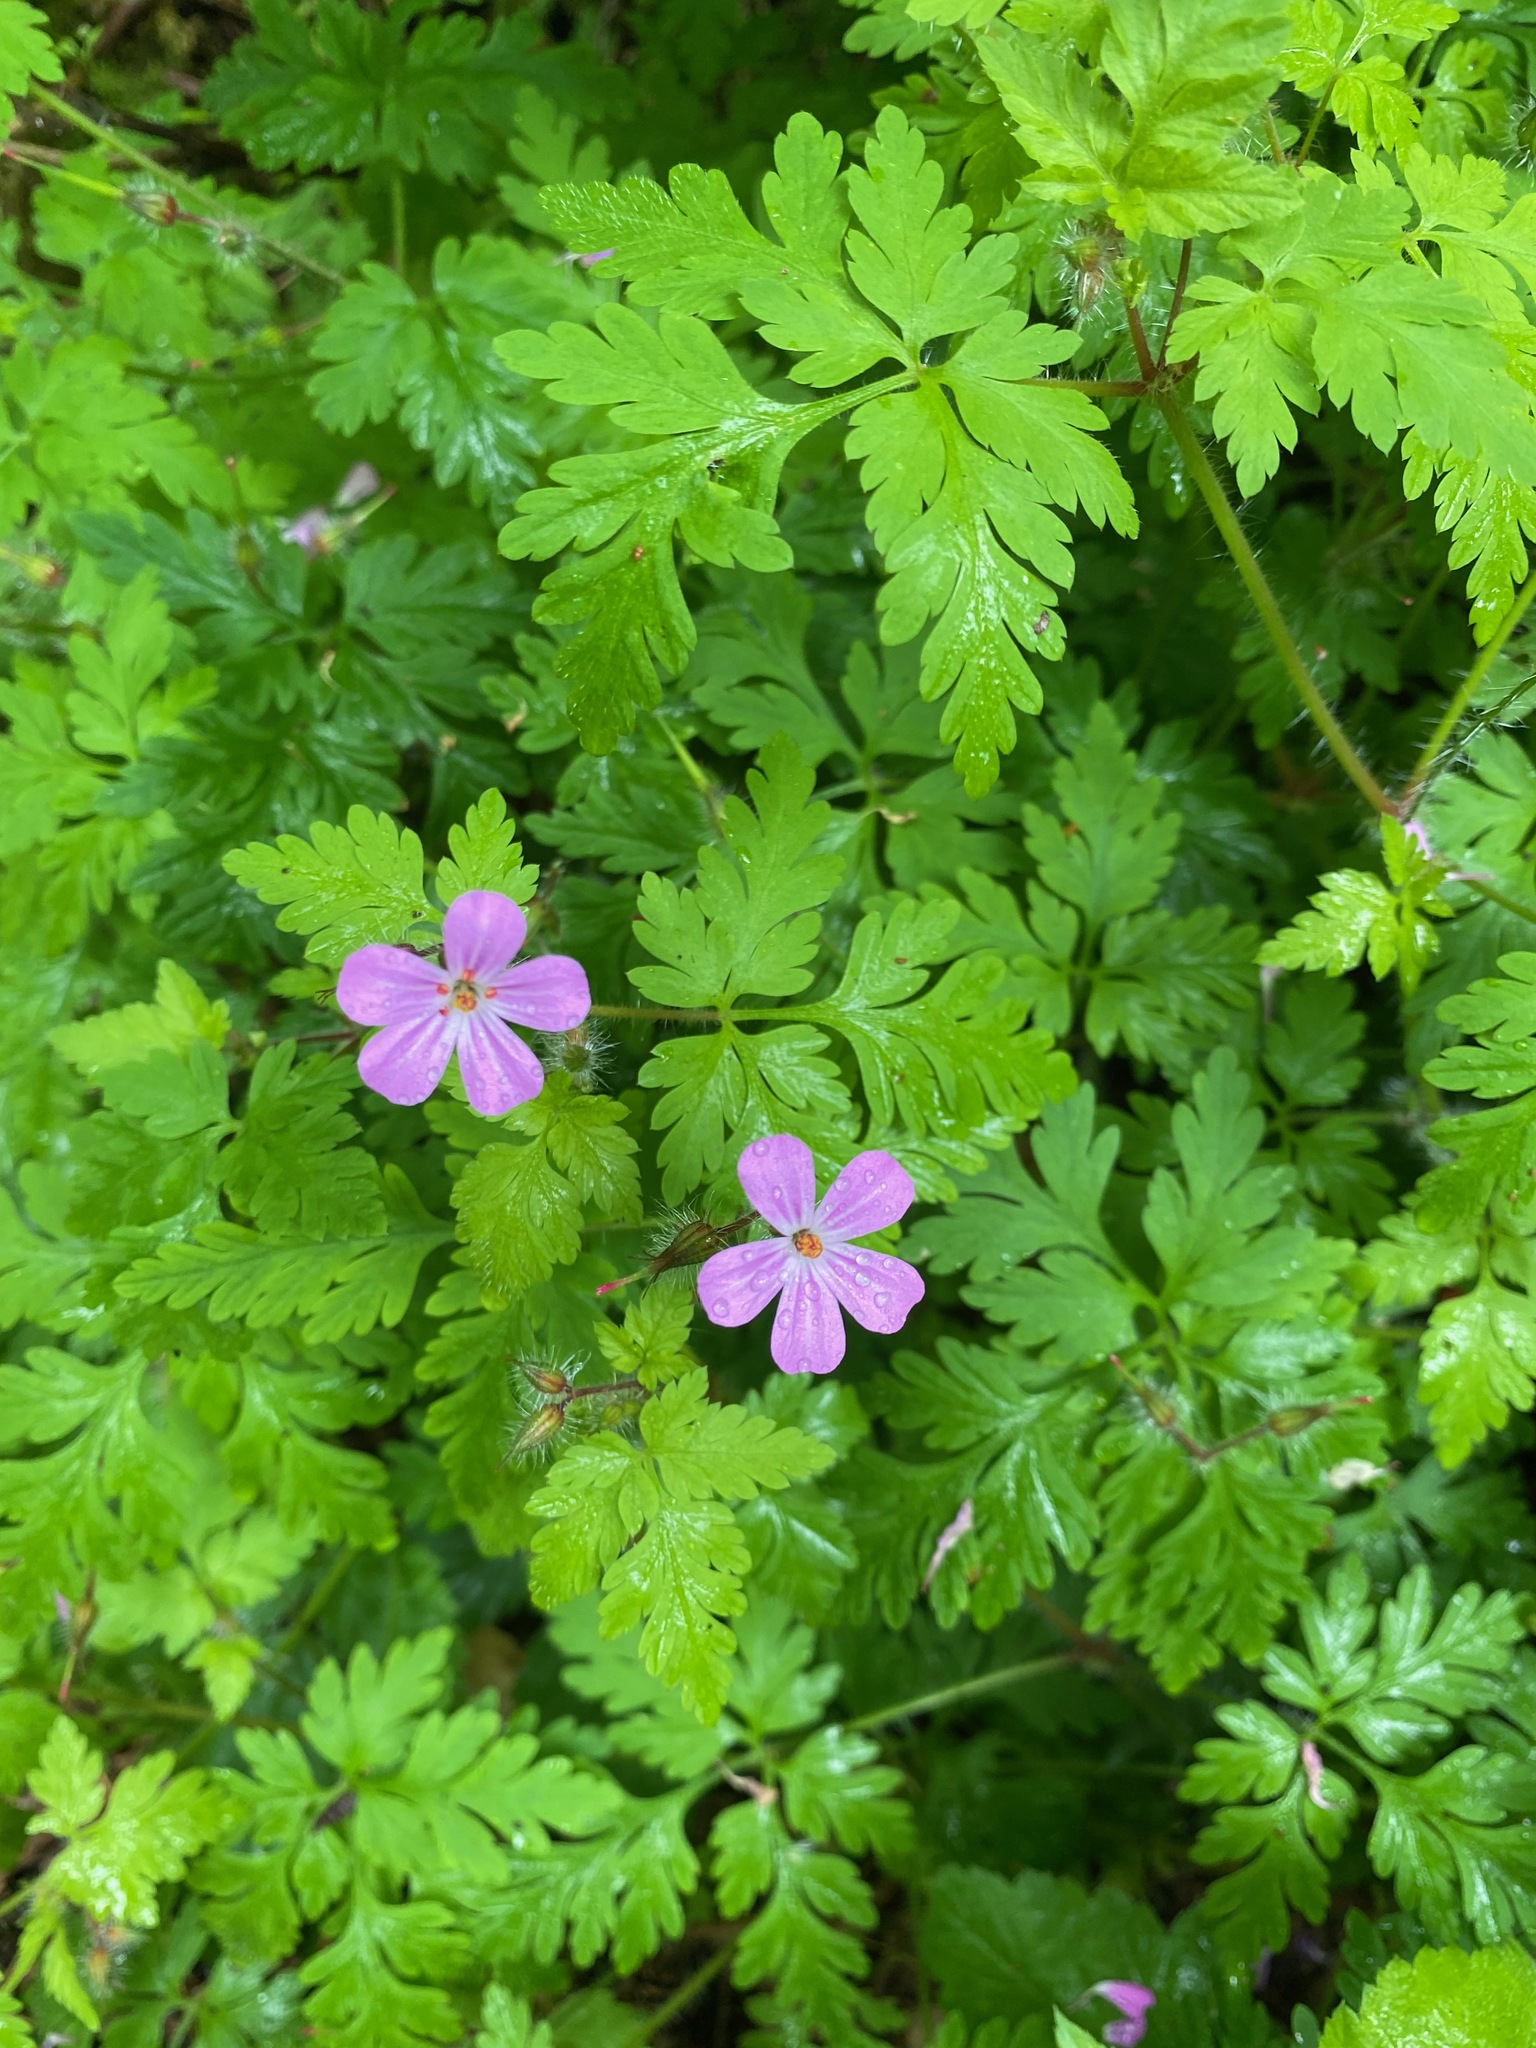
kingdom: Plantae
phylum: Tracheophyta
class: Magnoliopsida
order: Geraniales
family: Geraniaceae
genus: Geranium
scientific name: Geranium robertianum
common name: Herb-robert
